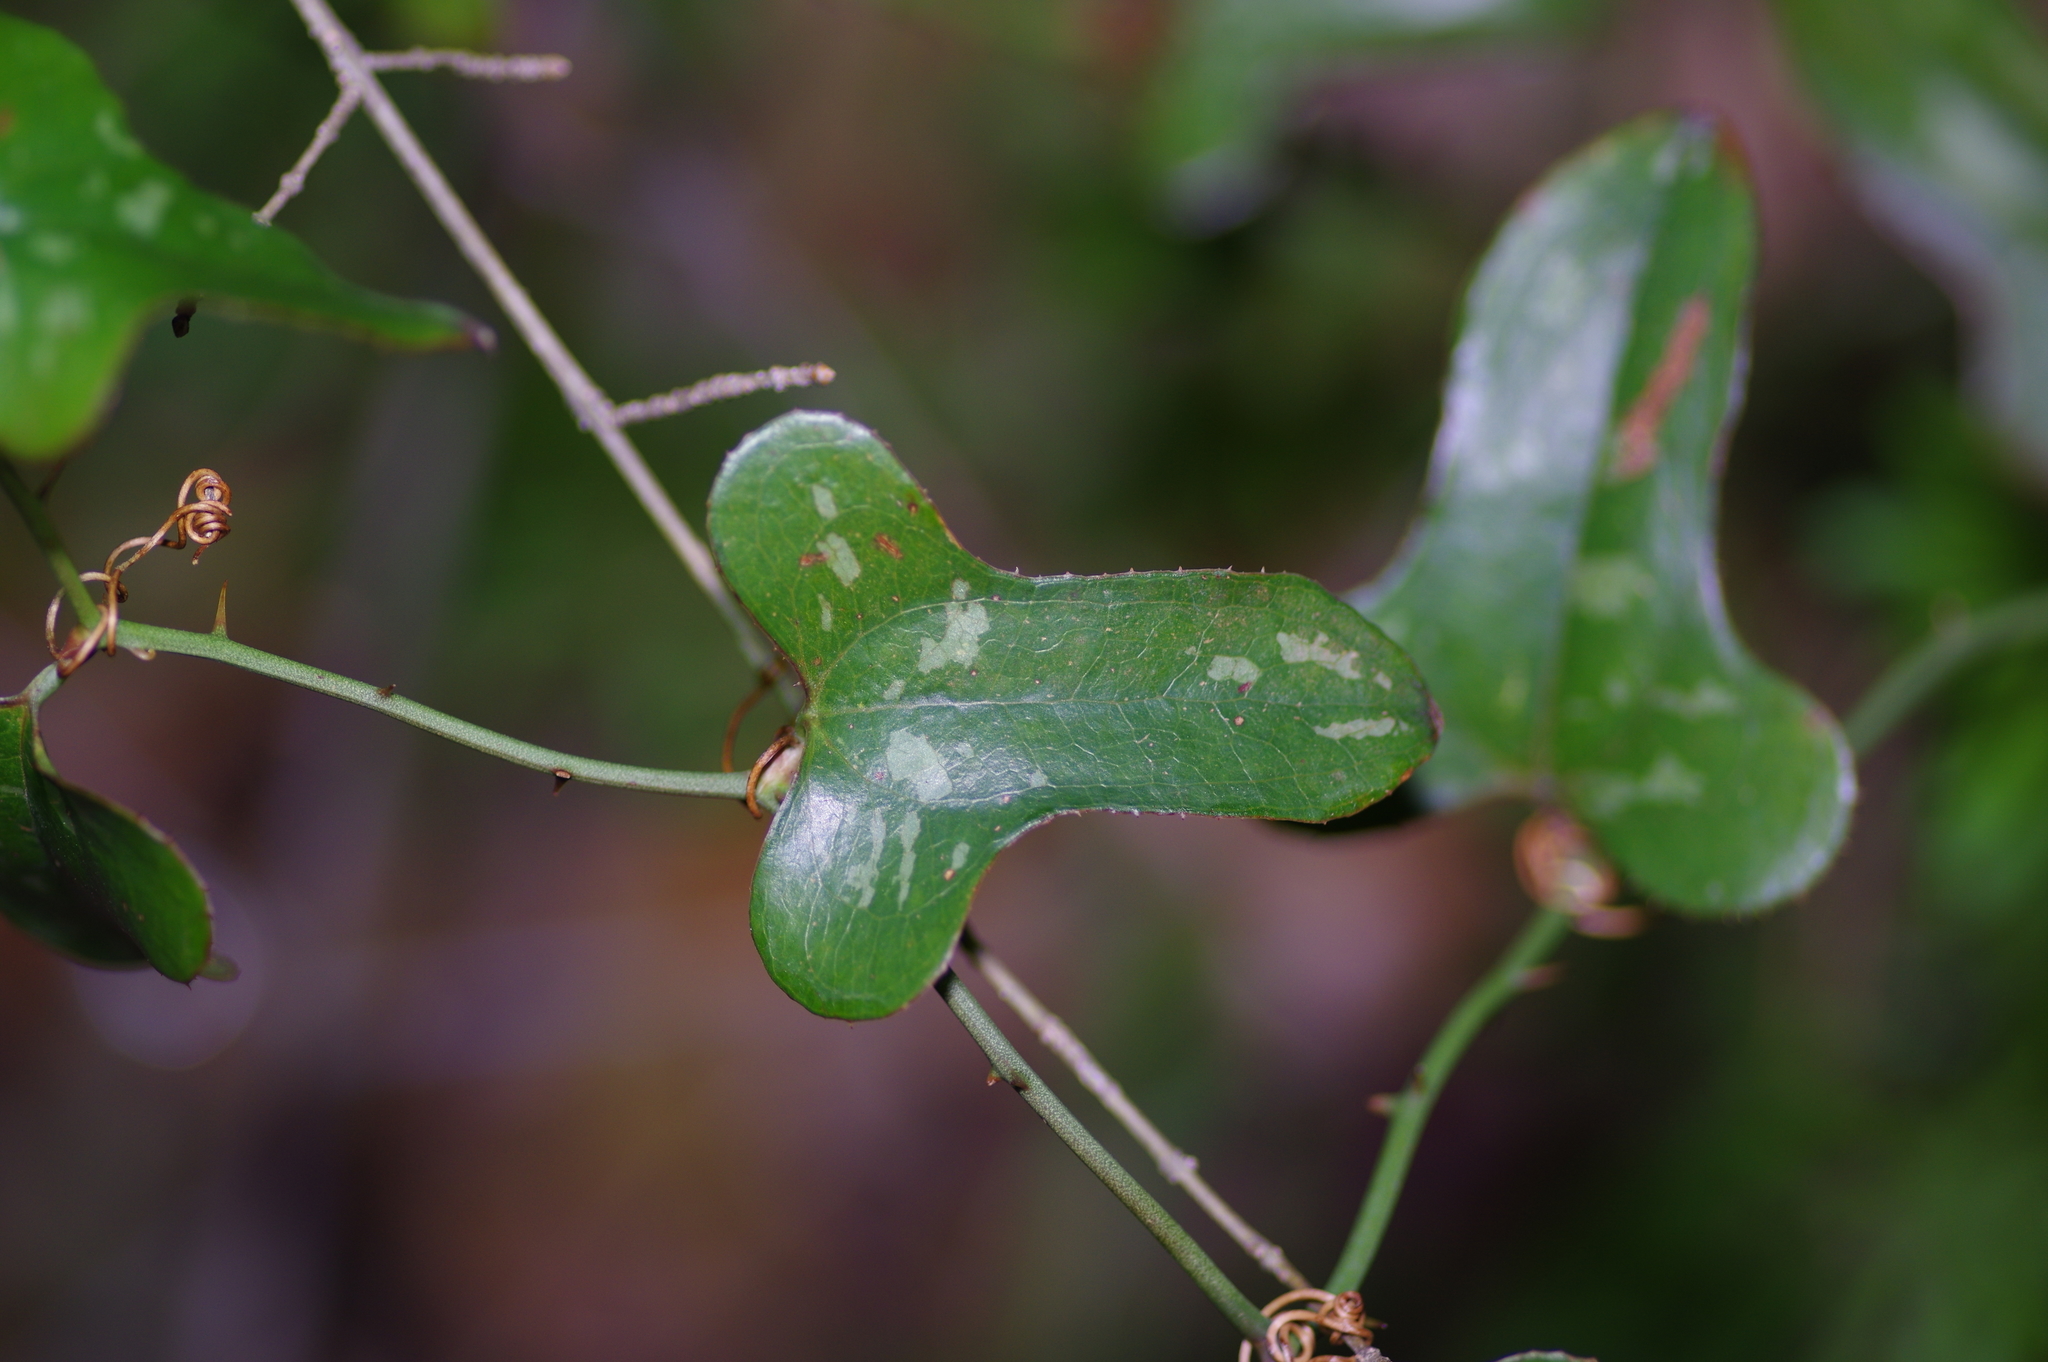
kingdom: Plantae
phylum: Tracheophyta
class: Liliopsida
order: Liliales
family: Smilacaceae
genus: Smilax
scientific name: Smilax bona-nox
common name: Catbrier
